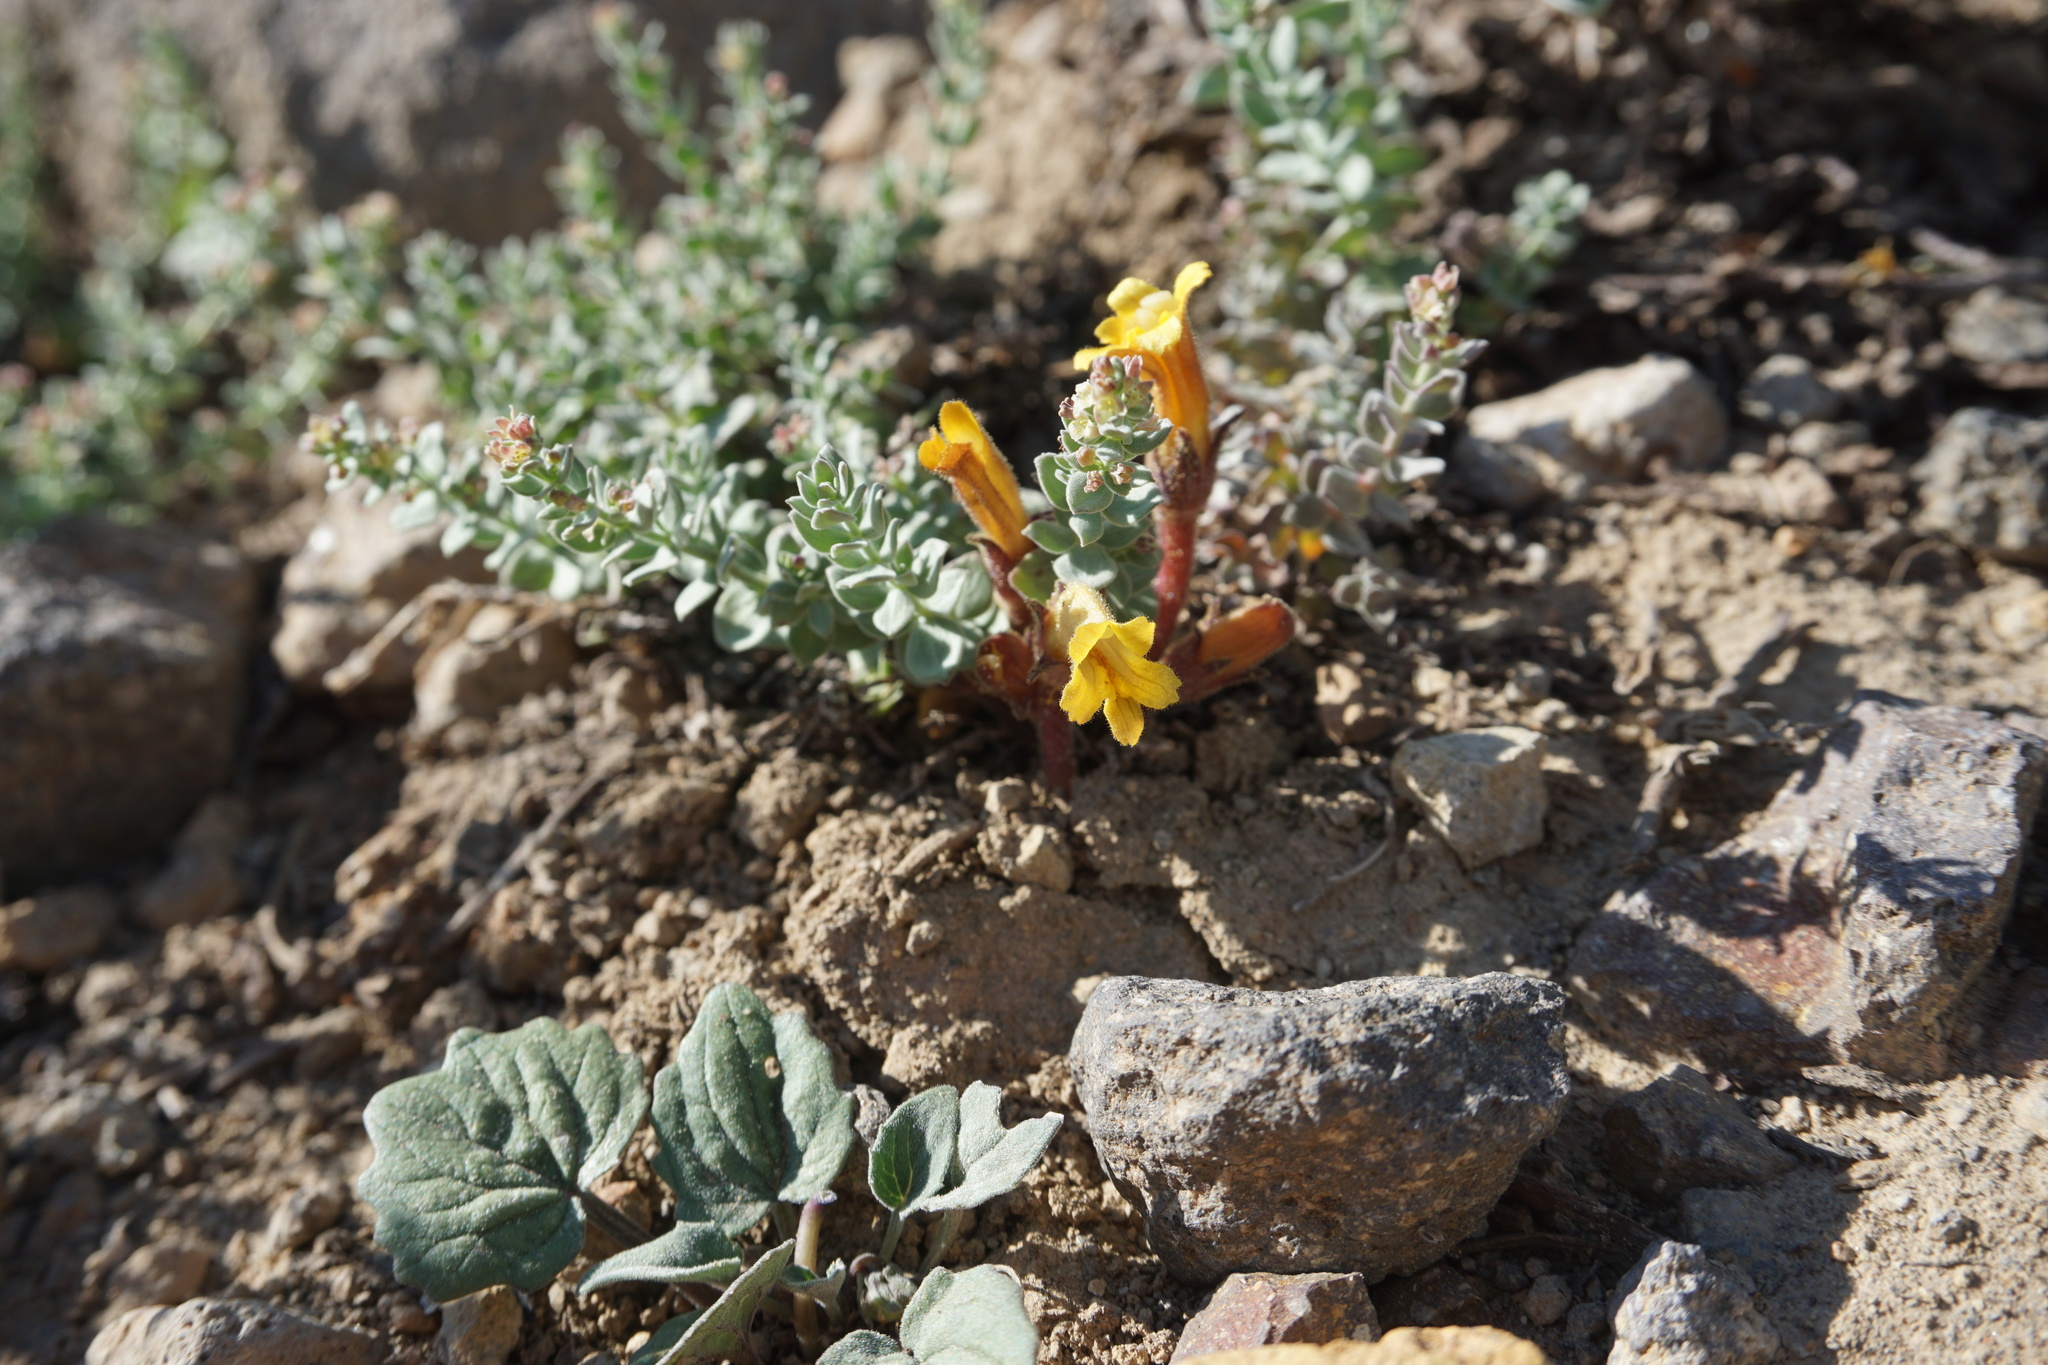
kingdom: Plantae
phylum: Tracheophyta
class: Magnoliopsida
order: Lamiales
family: Orobanchaceae
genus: Aphyllon
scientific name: Aphyllon epigalium
